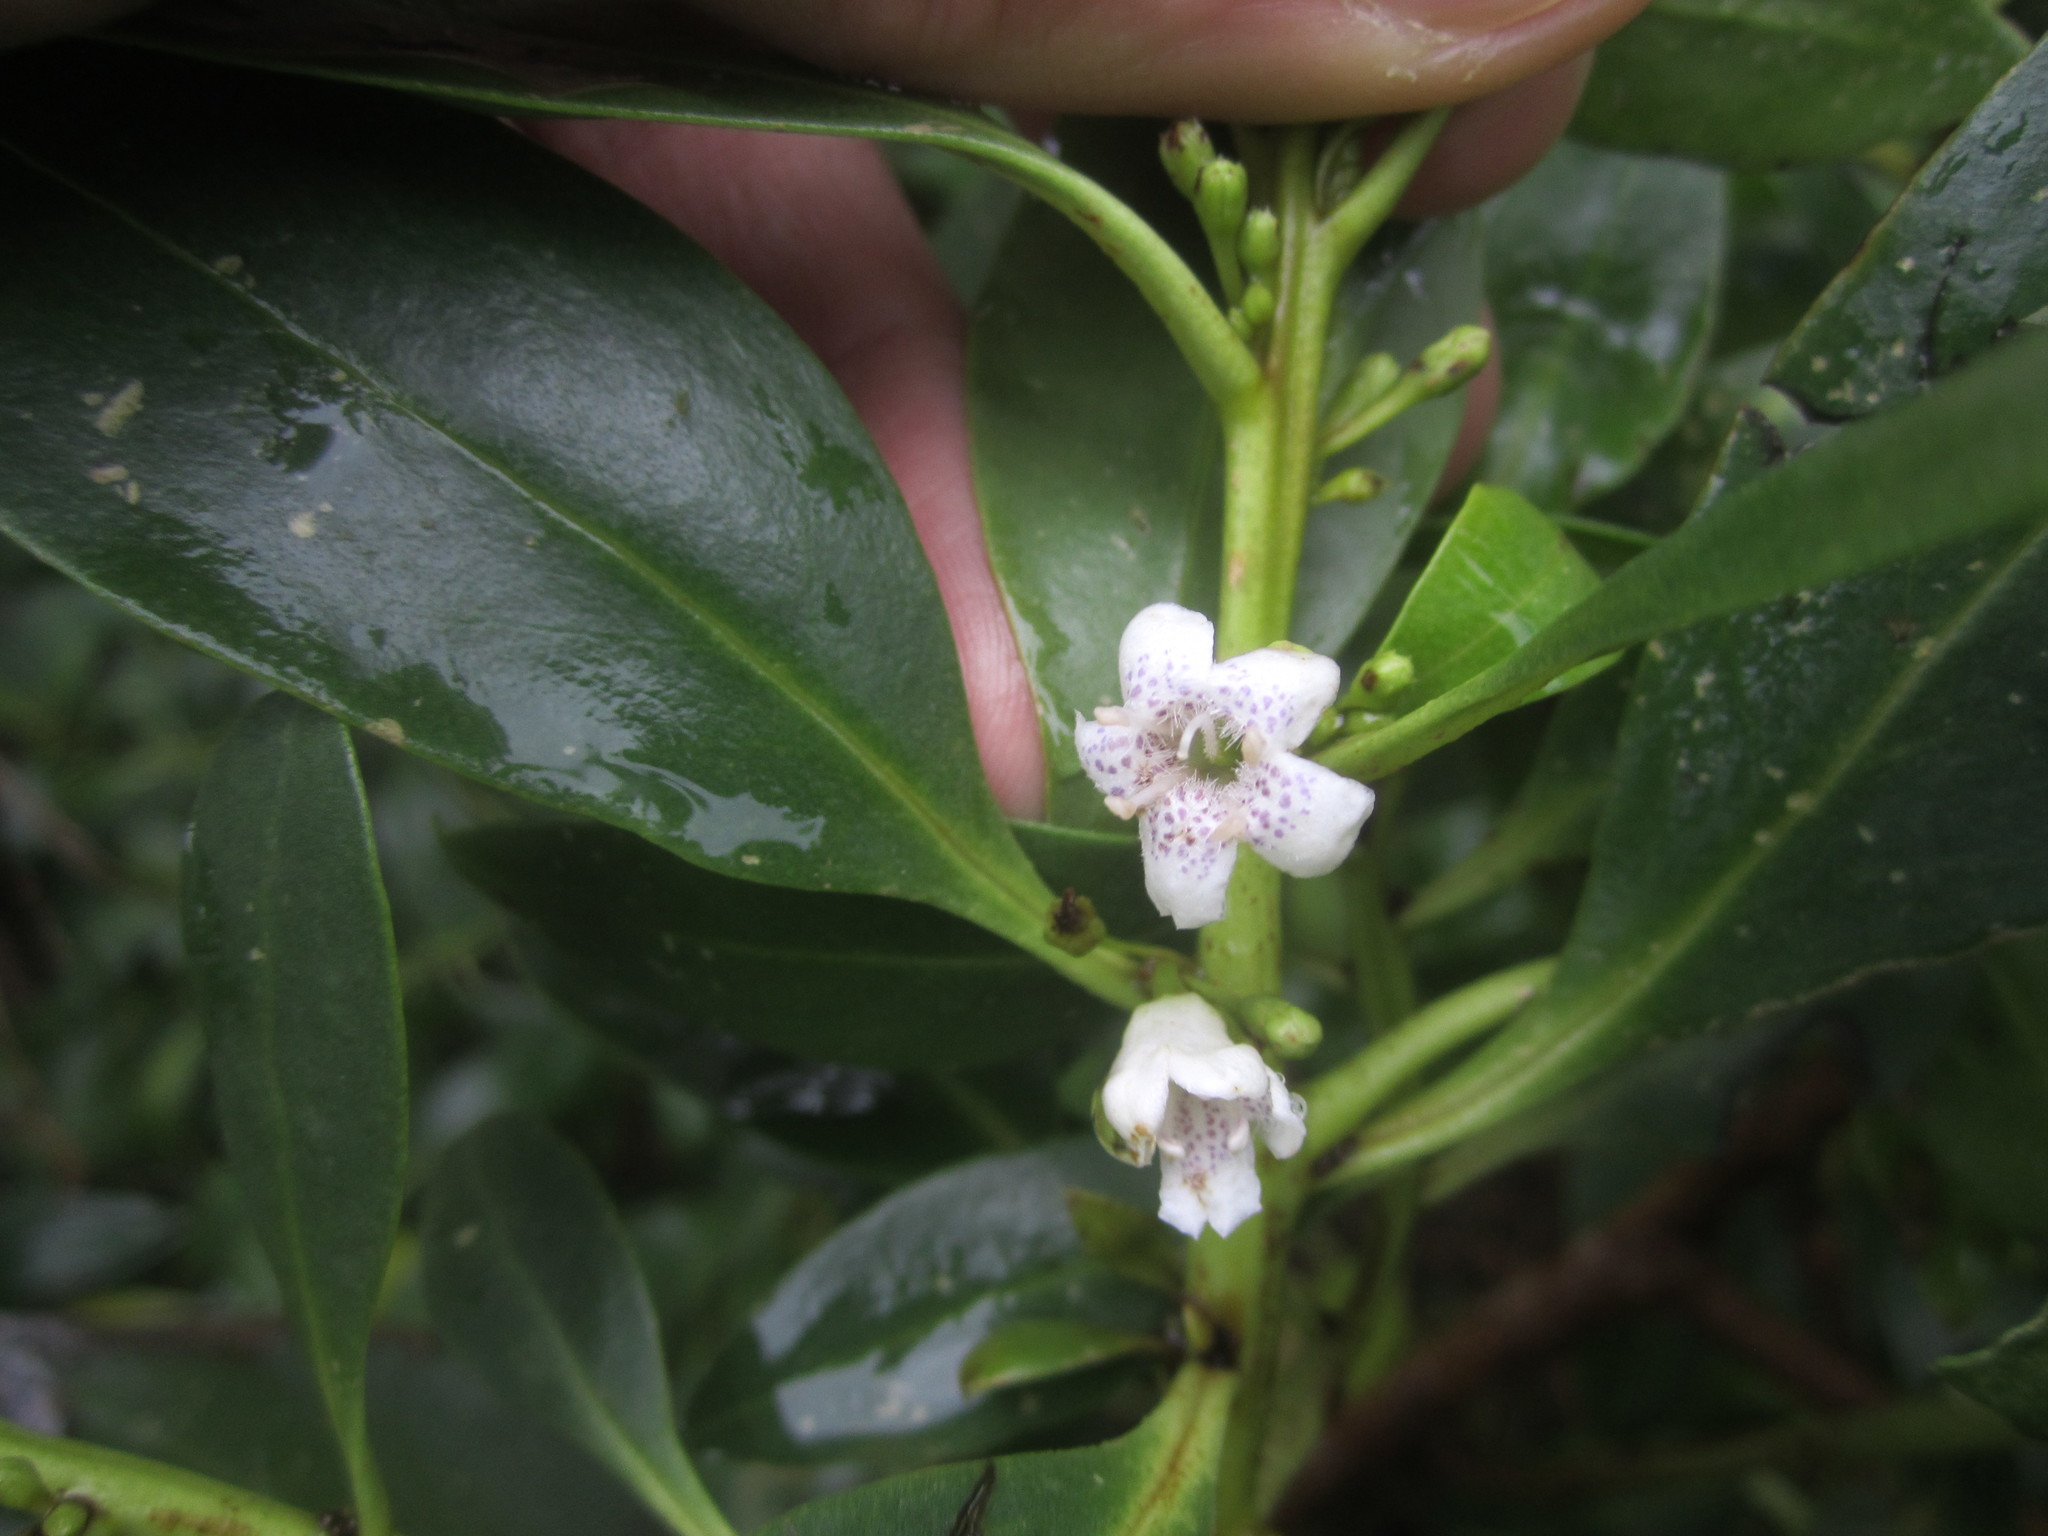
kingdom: Plantae
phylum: Tracheophyta
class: Magnoliopsida
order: Lamiales
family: Scrophulariaceae
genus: Myoporum
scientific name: Myoporum laetum
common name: Ngaio tree
